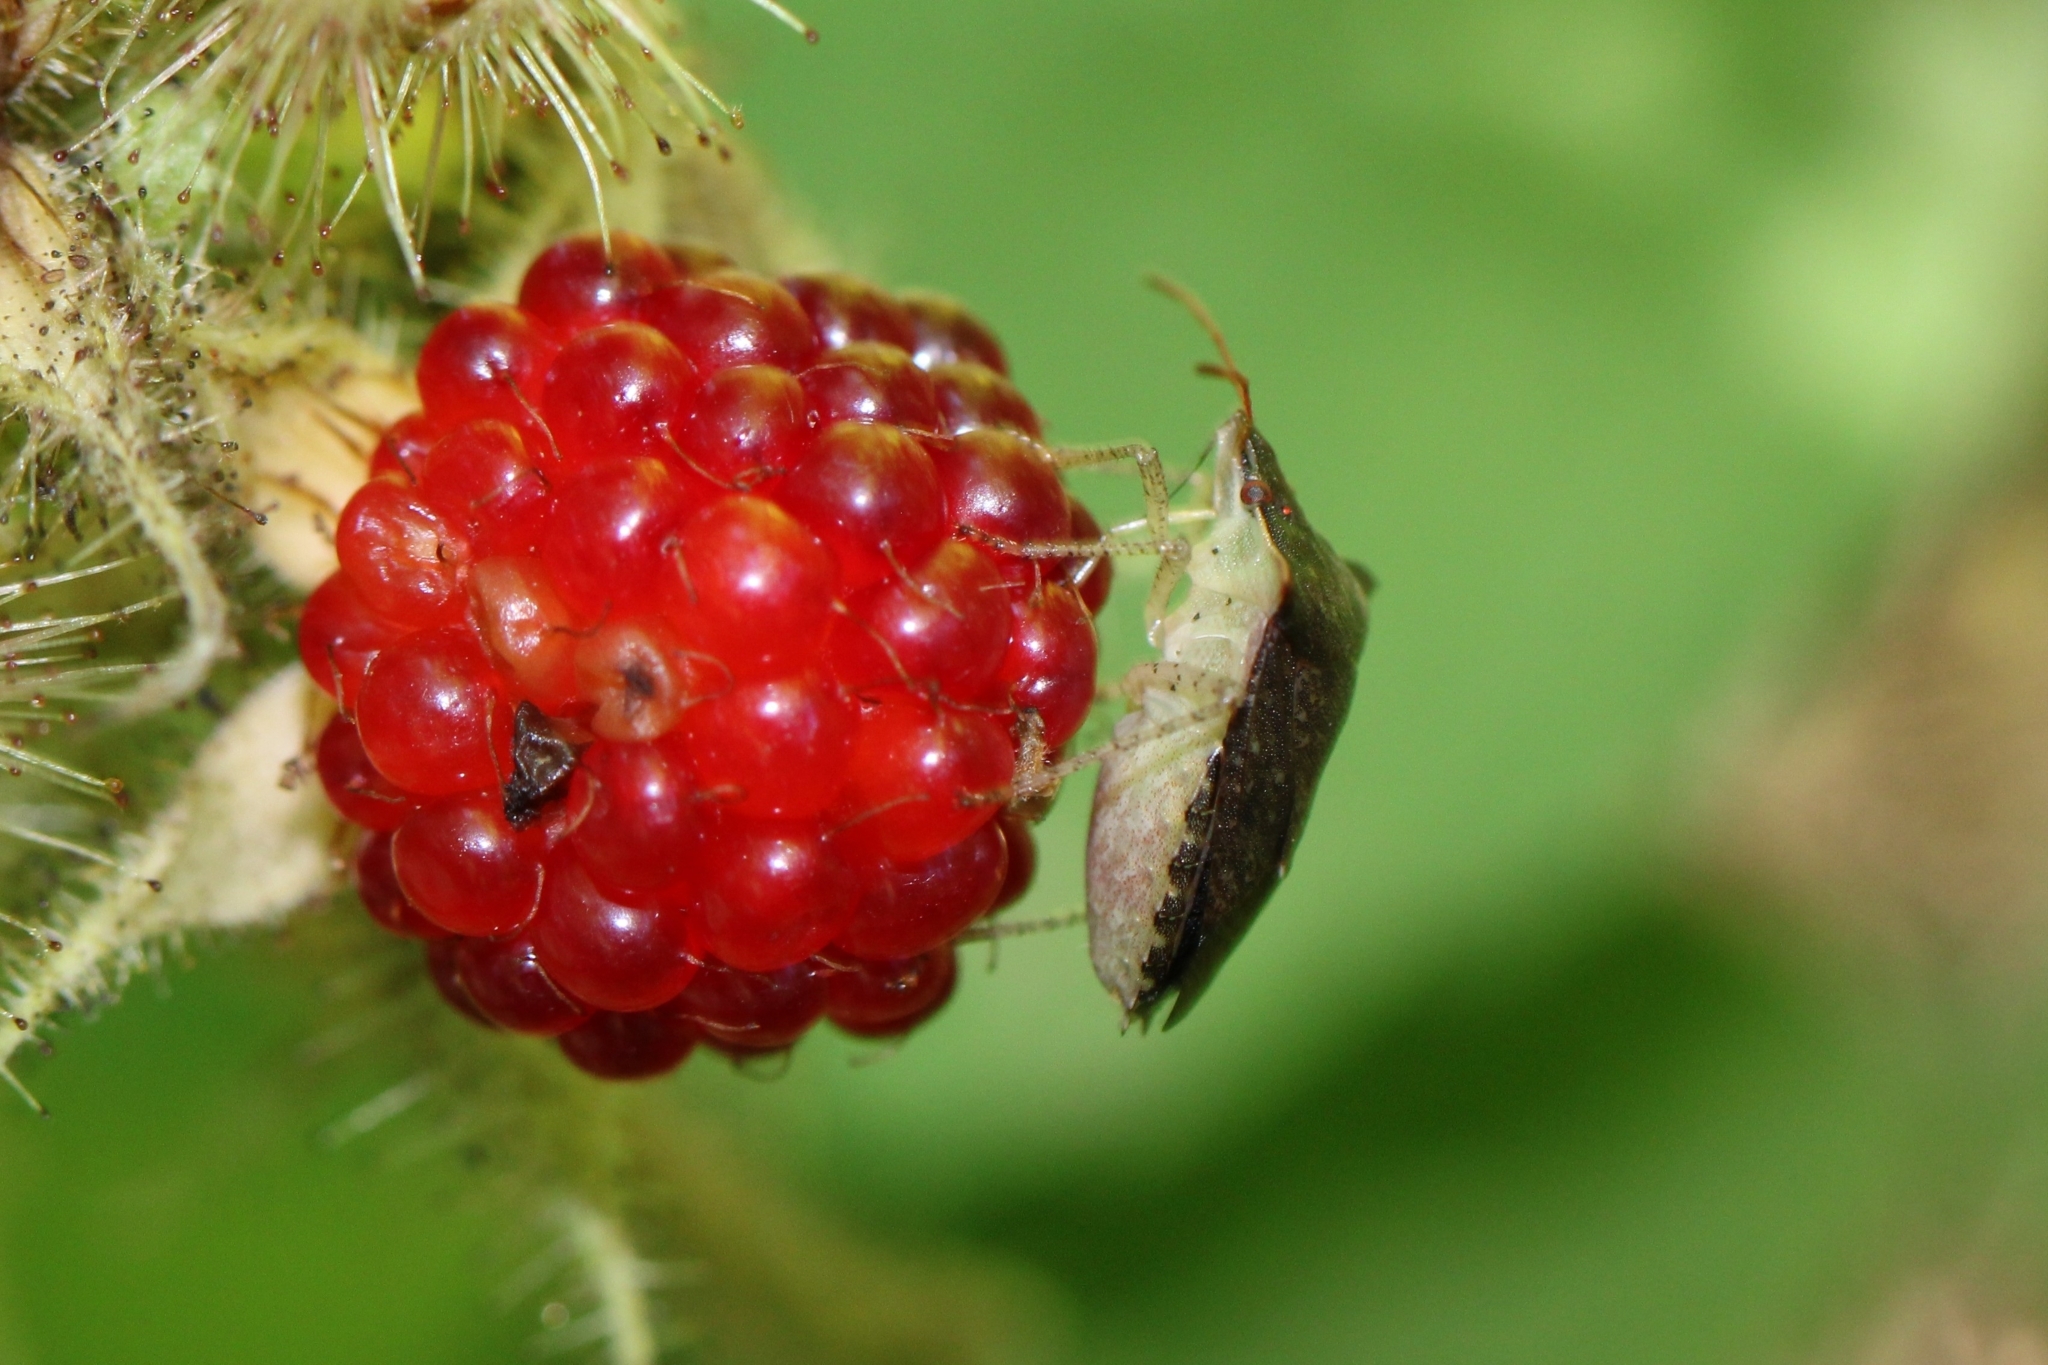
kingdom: Animalia
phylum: Arthropoda
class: Insecta
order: Hemiptera
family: Pentatomidae
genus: Euschistus
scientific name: Euschistus
